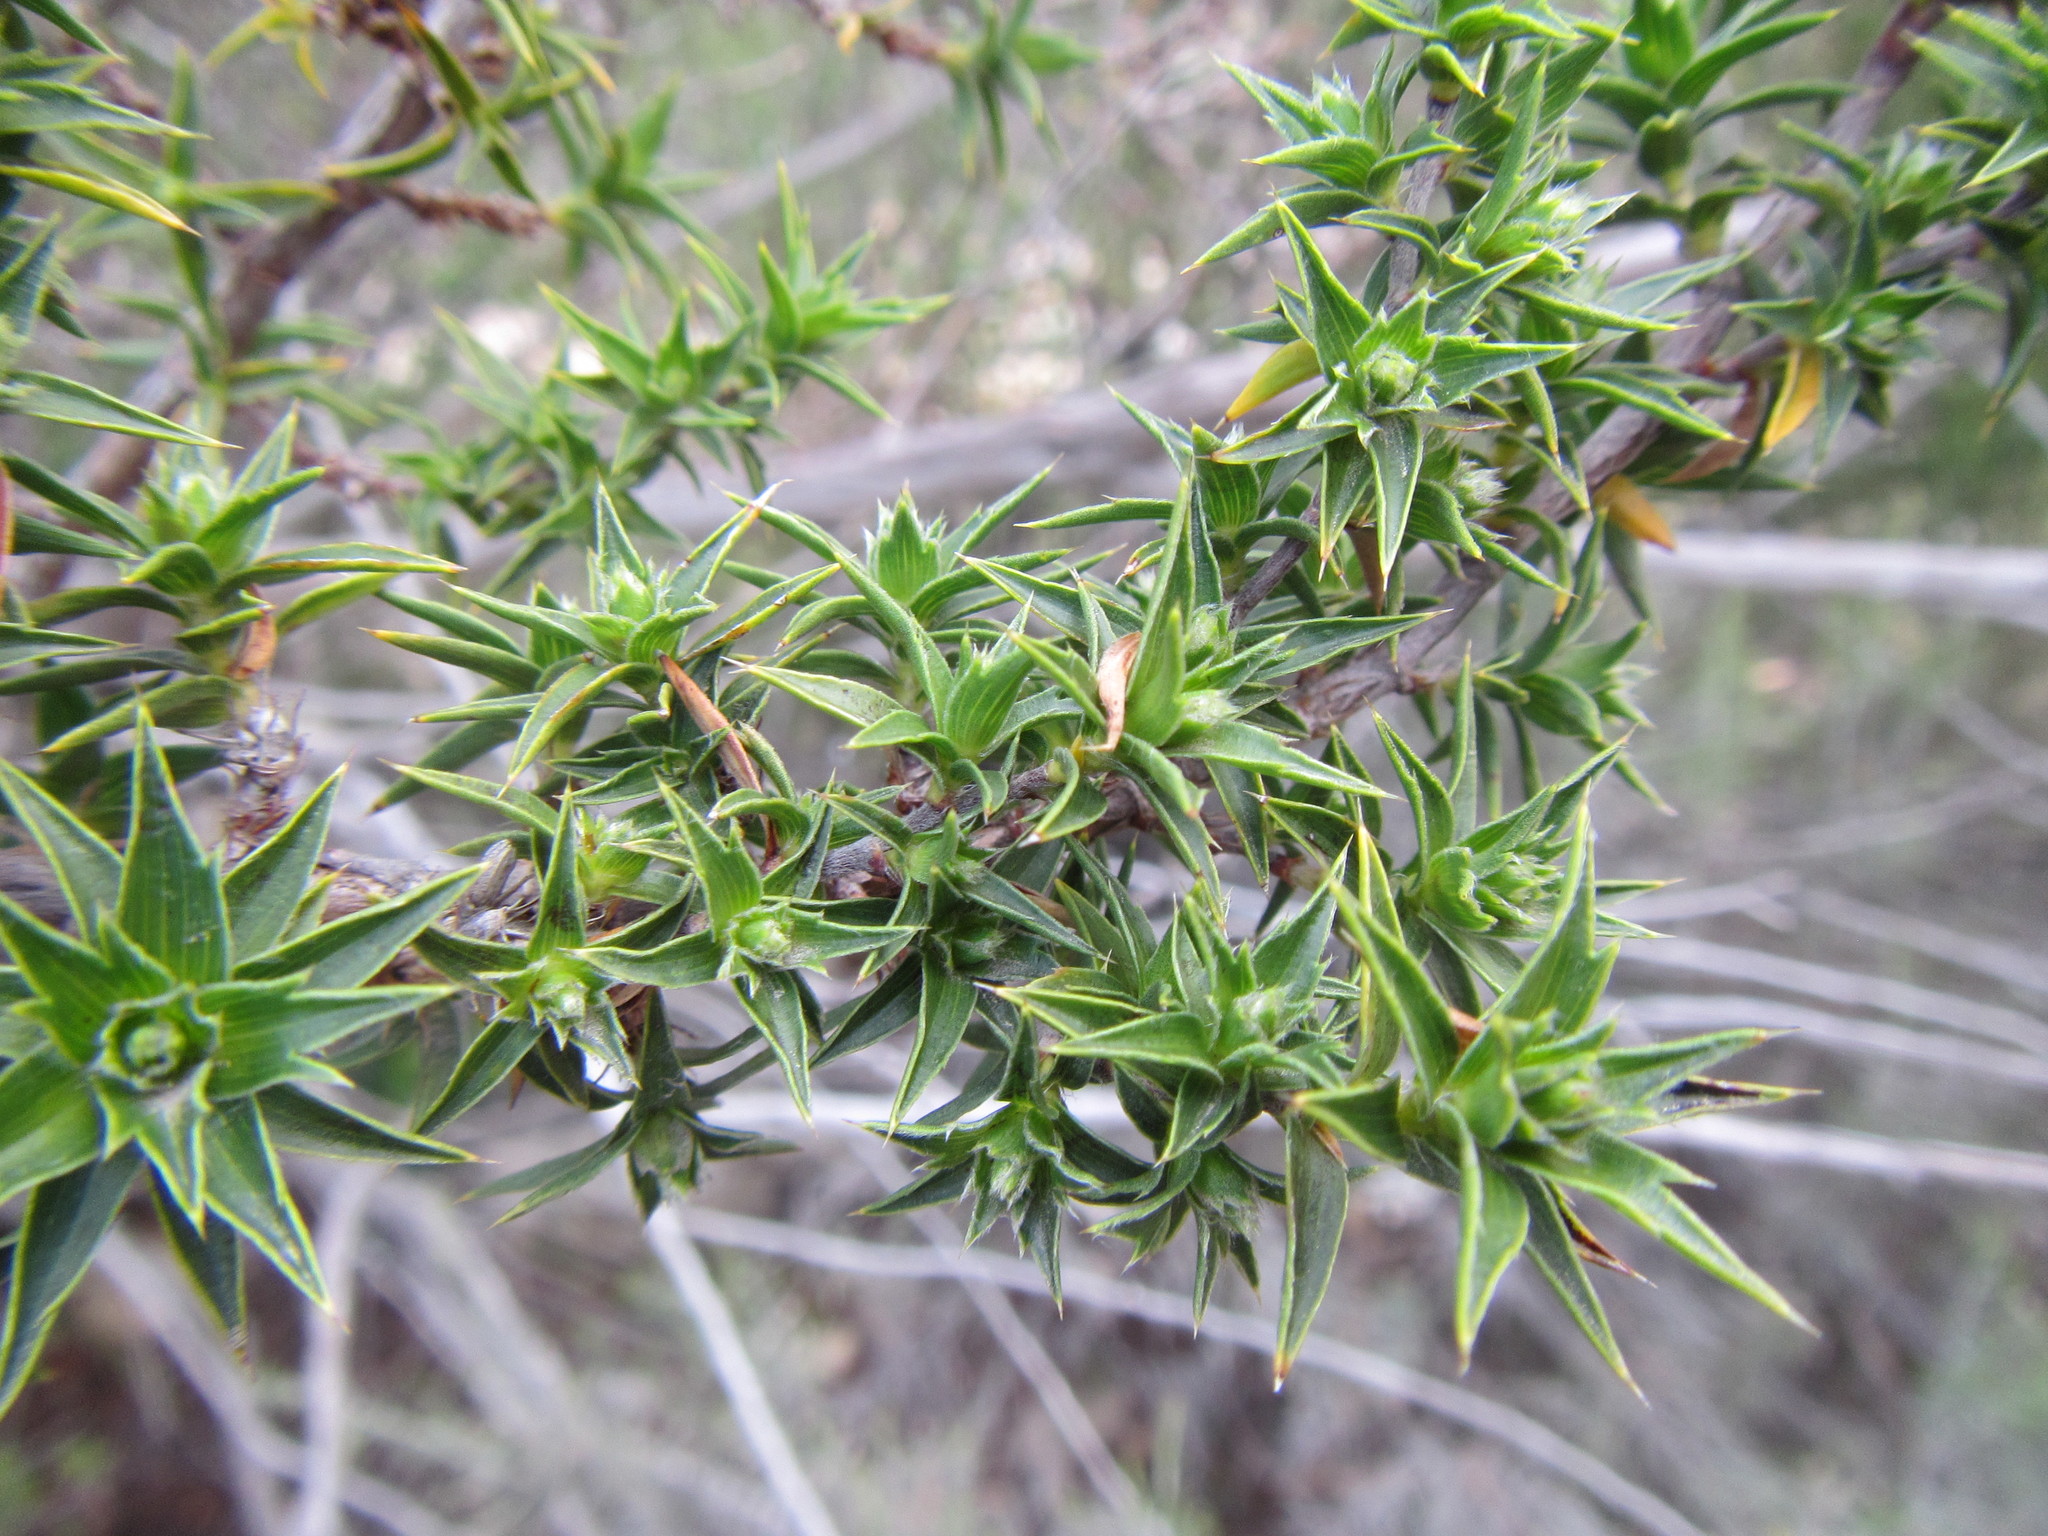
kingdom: Plantae
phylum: Tracheophyta
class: Magnoliopsida
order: Rosales
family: Rosaceae
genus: Cliffortia
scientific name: Cliffortia ruscifolia
